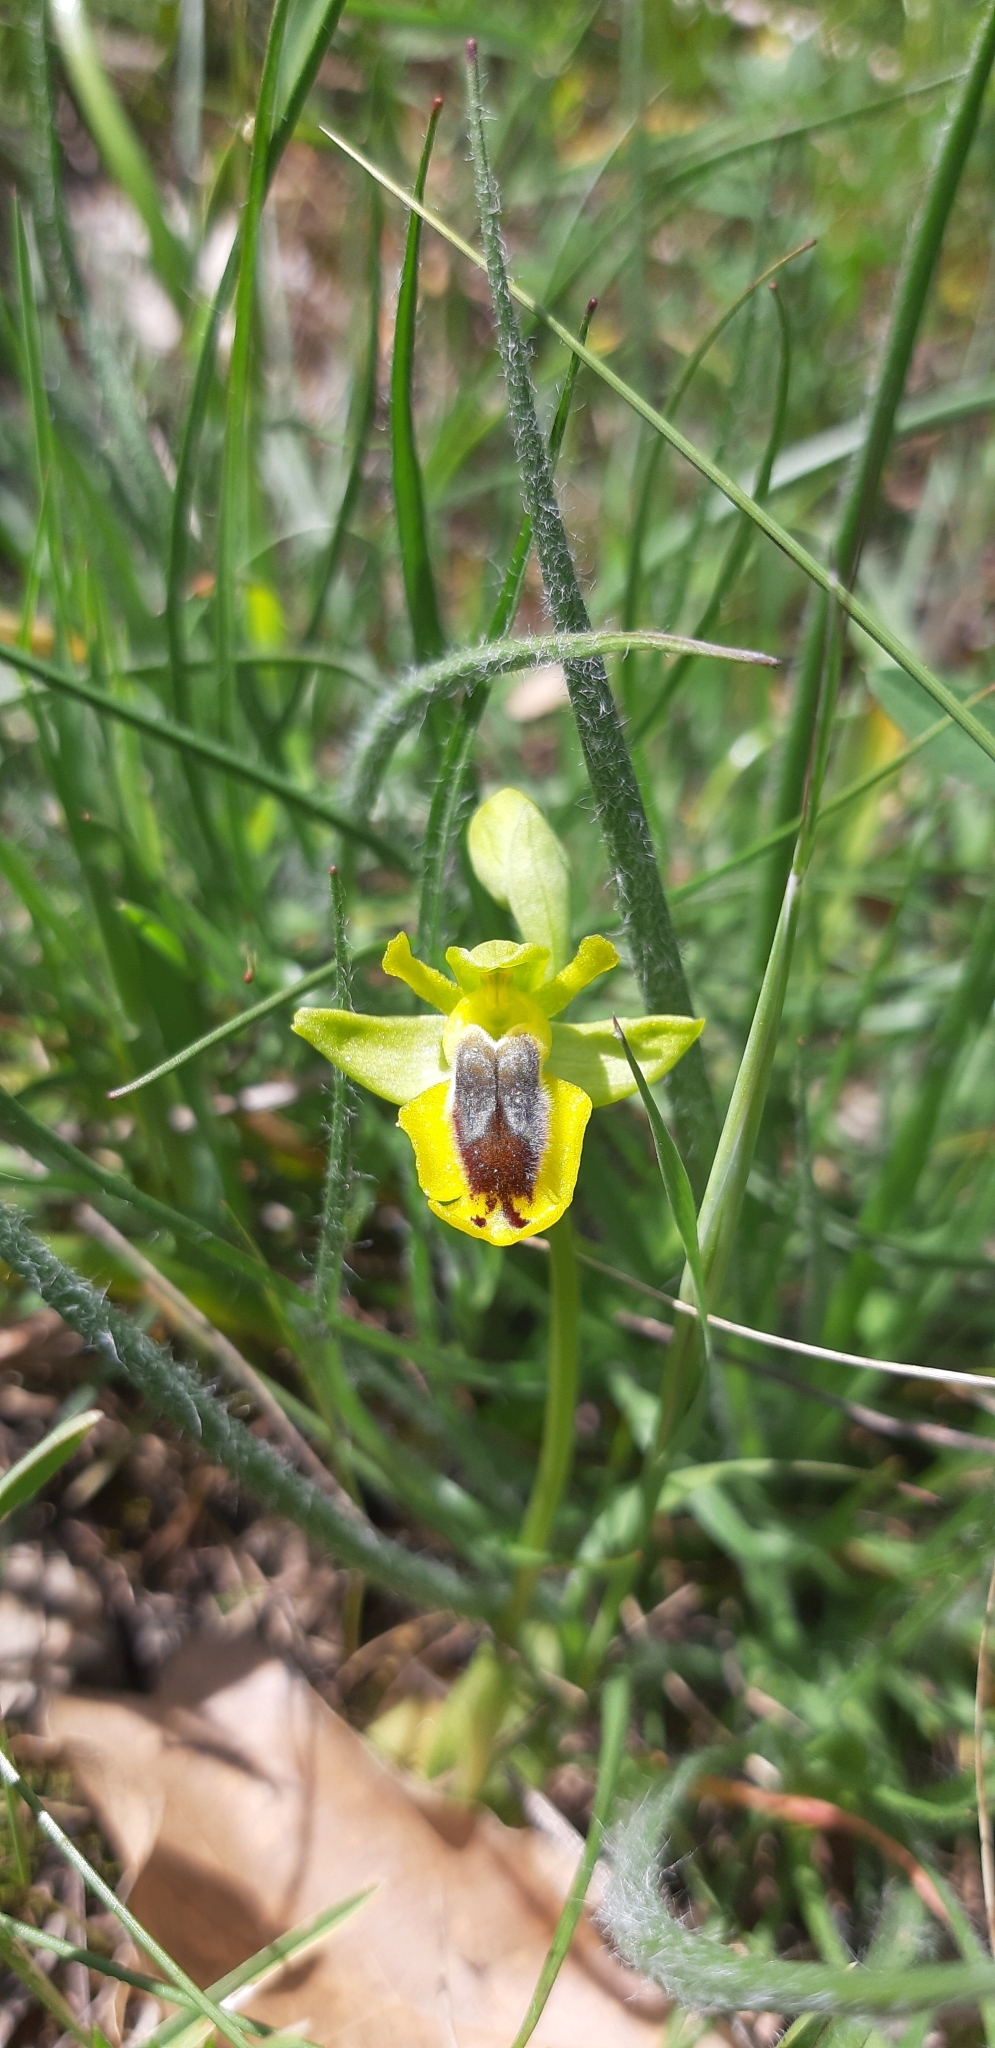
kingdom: Plantae
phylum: Tracheophyta
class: Liliopsida
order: Asparagales
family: Orchidaceae
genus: Ophrys
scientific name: Ophrys lutea
